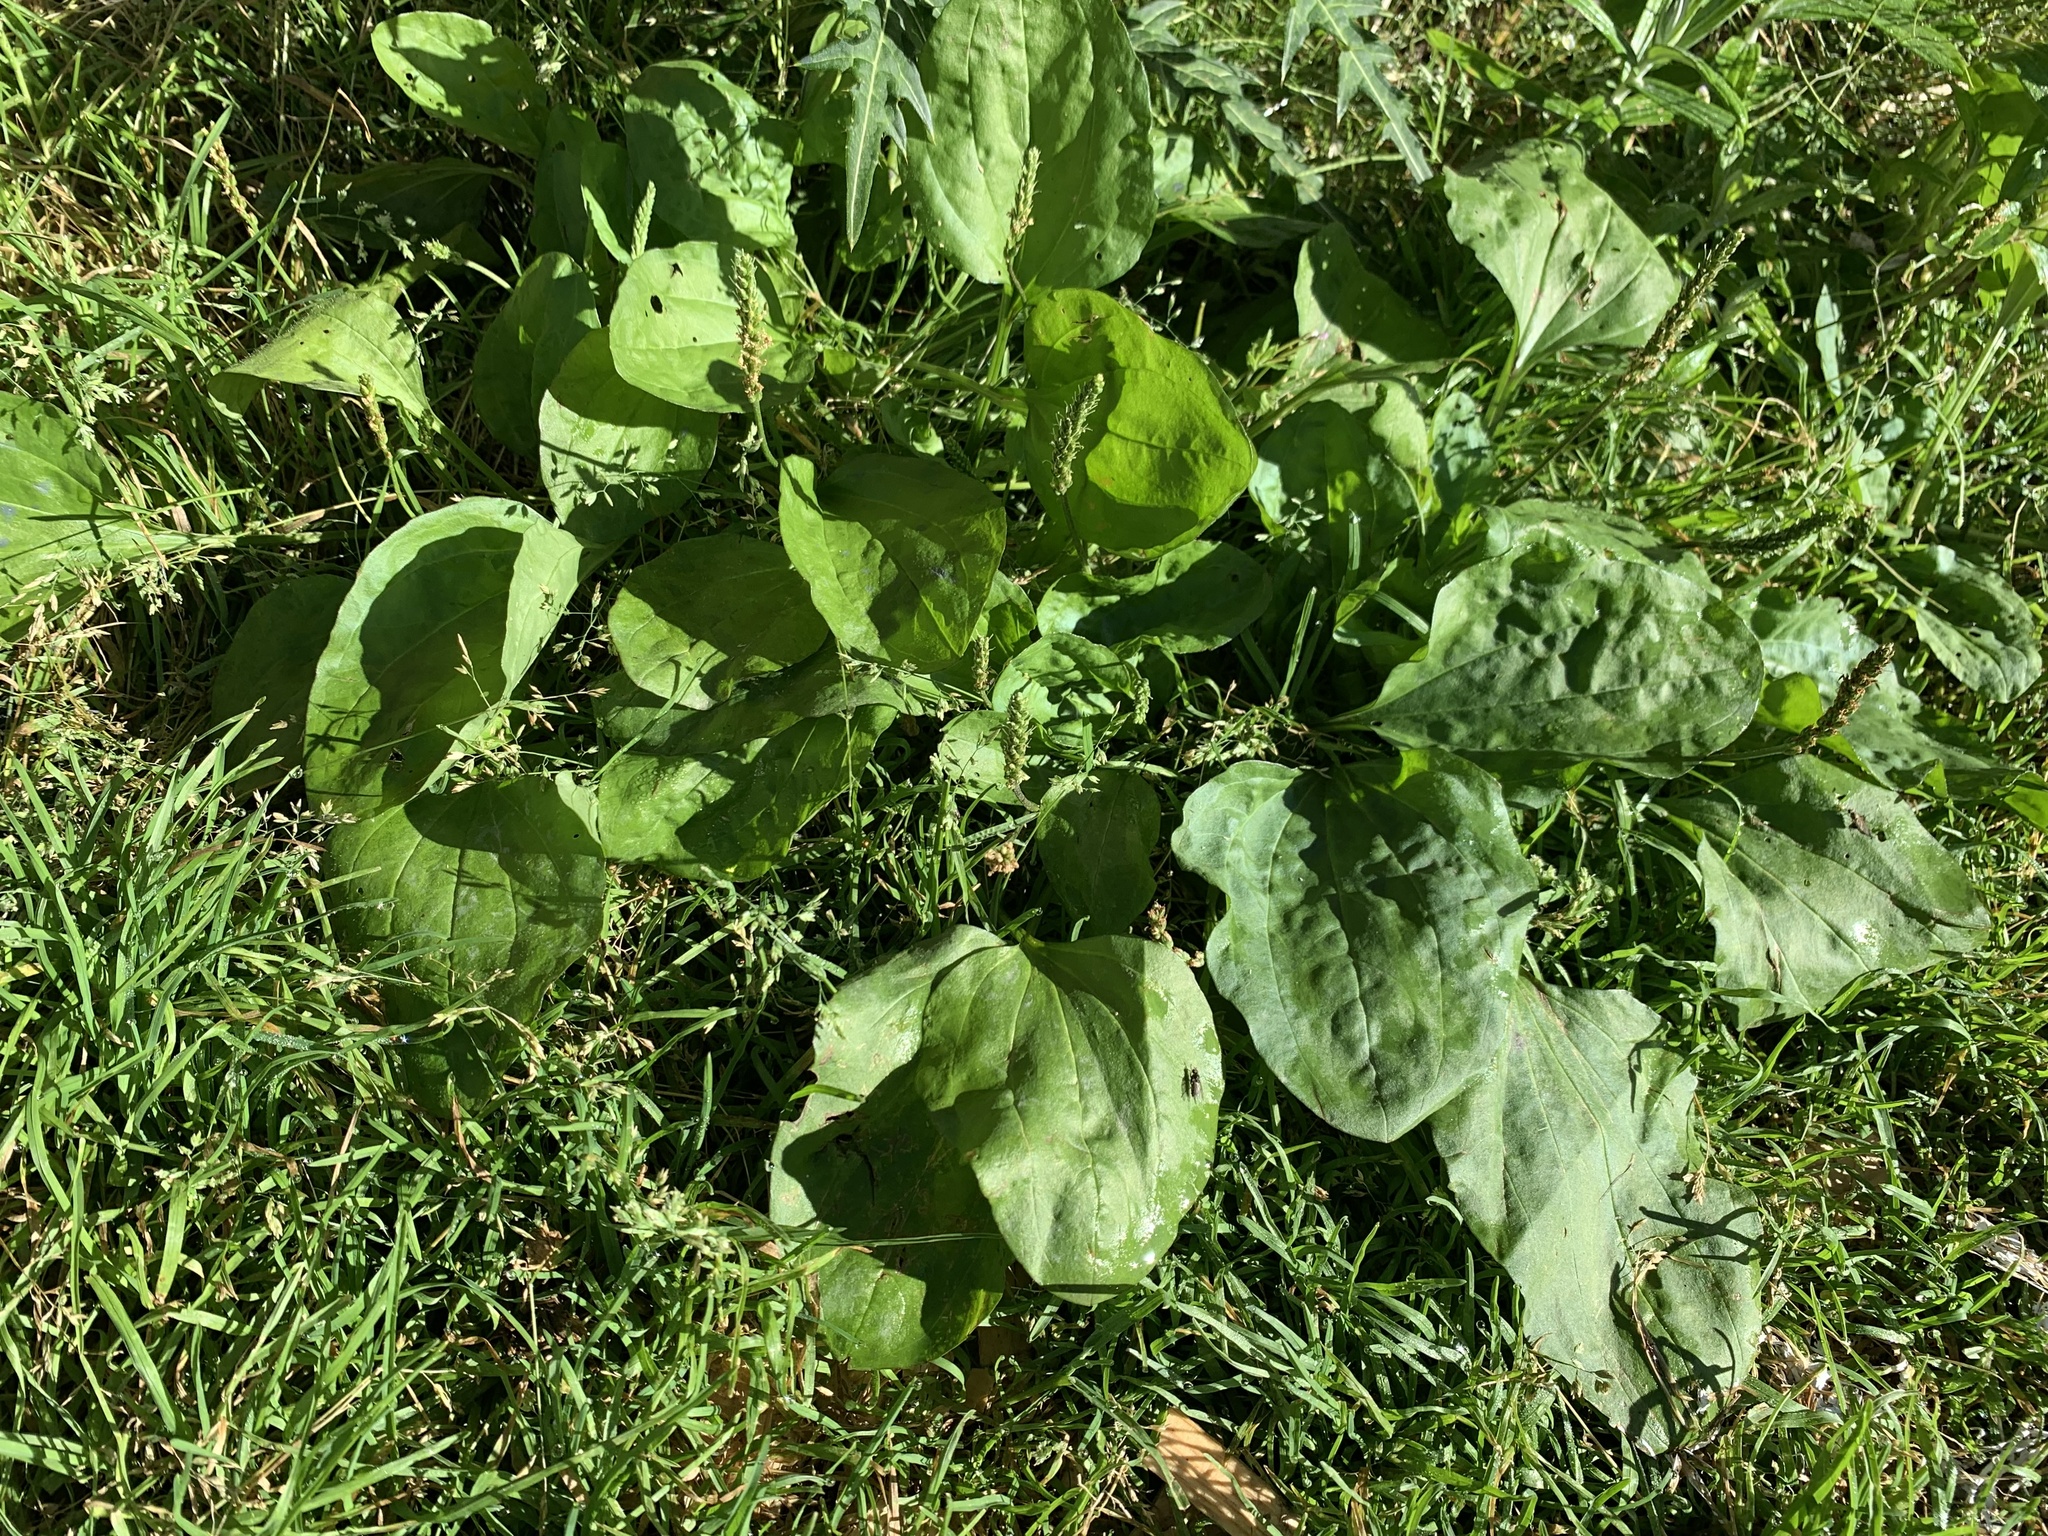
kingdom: Plantae
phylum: Tracheophyta
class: Magnoliopsida
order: Lamiales
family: Plantaginaceae
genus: Plantago
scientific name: Plantago asiatica
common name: Psyllium
